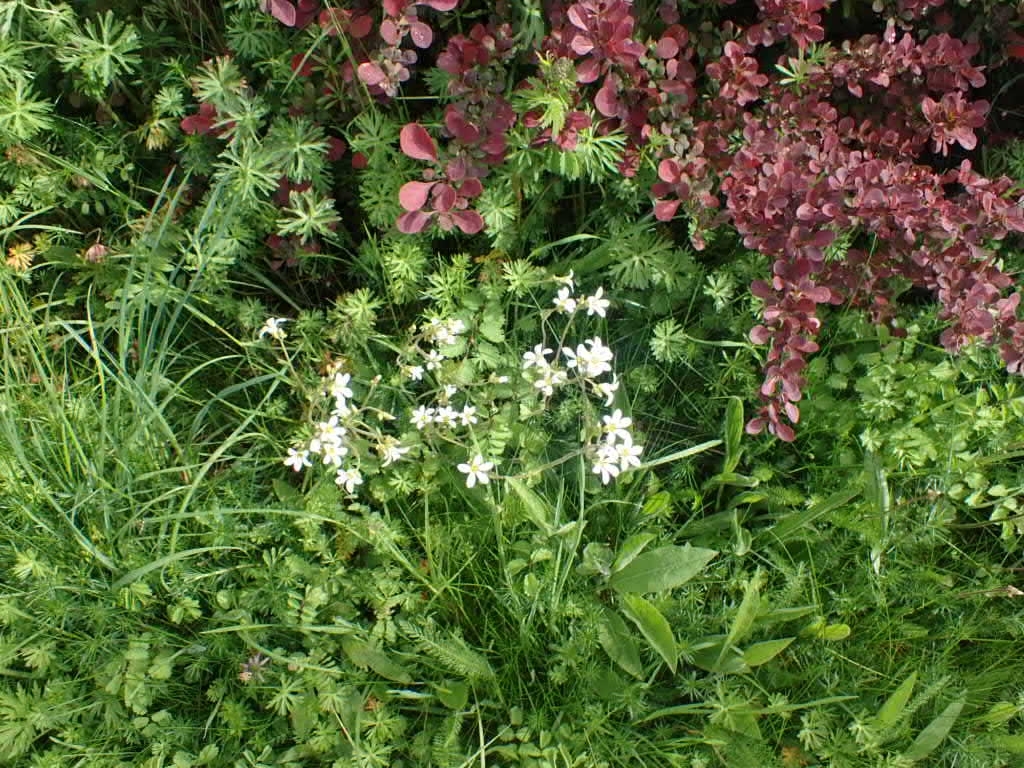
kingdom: Plantae
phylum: Tracheophyta
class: Magnoliopsida
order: Saxifragales
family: Saxifragaceae
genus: Saxifraga
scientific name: Saxifraga granulata
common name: Meadow saxifrage
